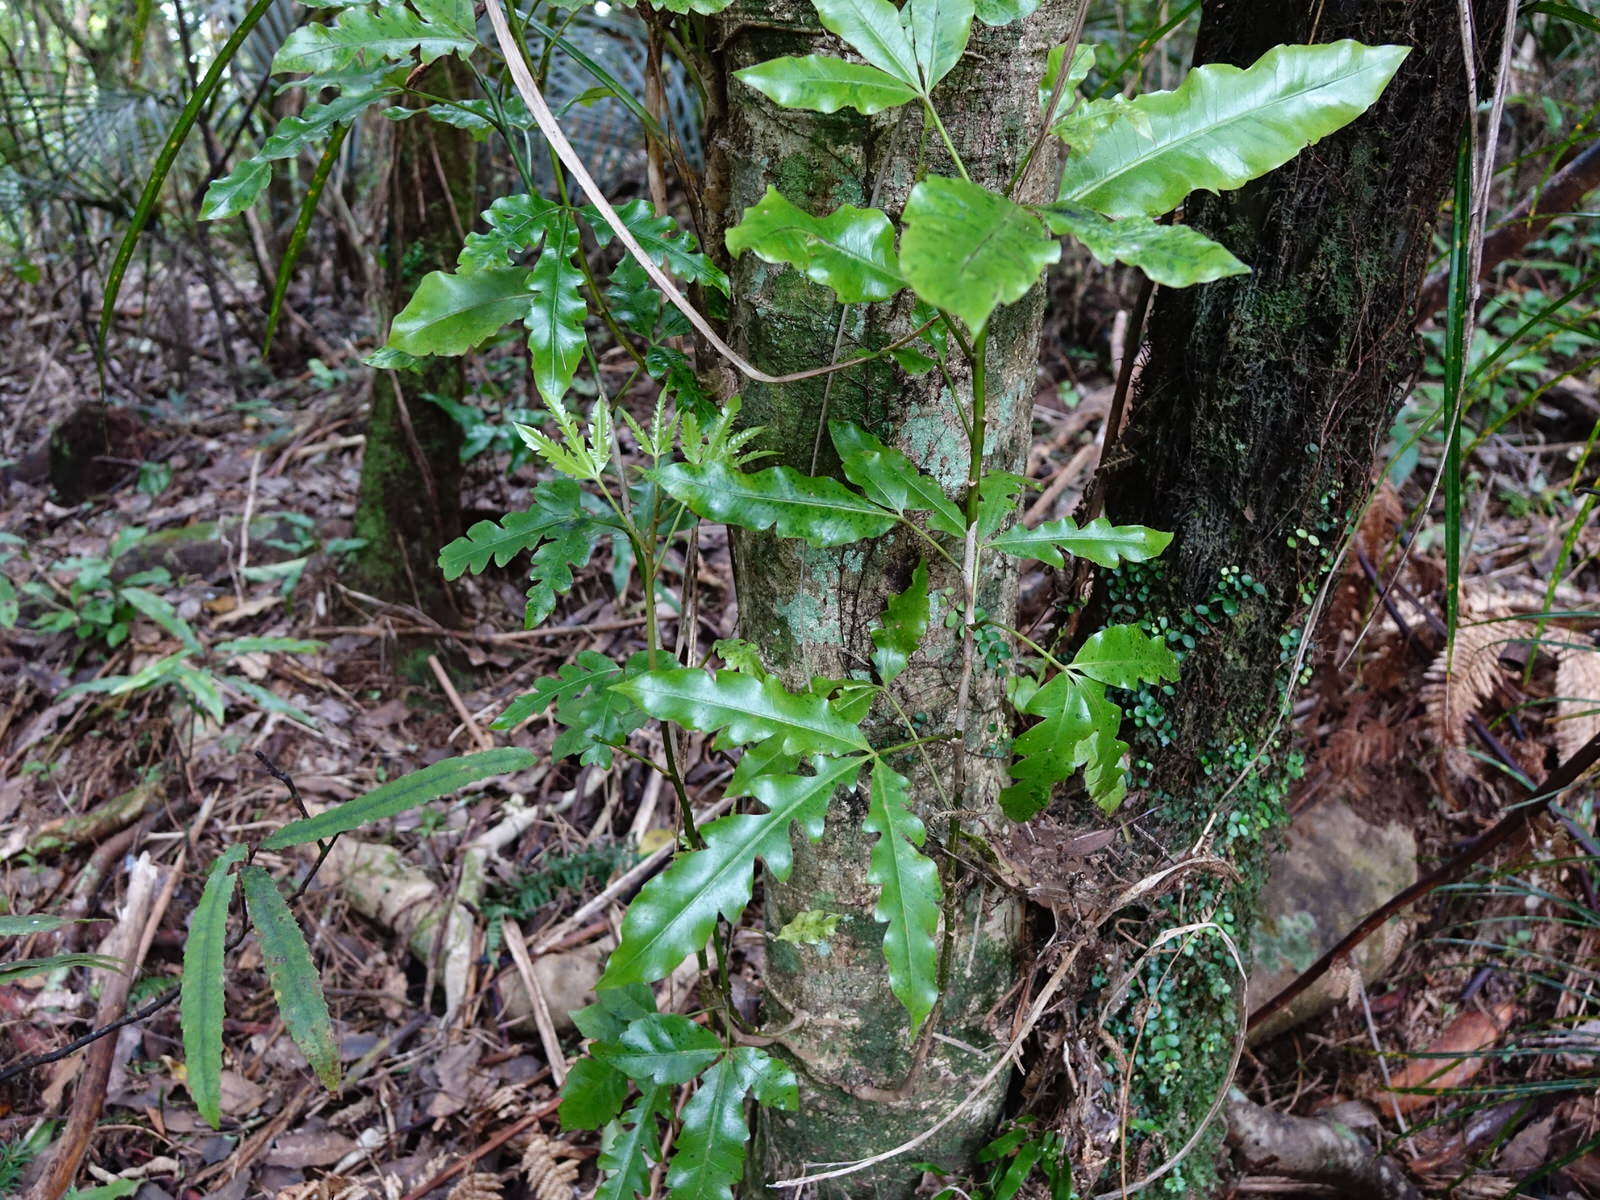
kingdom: Plantae
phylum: Tracheophyta
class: Magnoliopsida
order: Apiales
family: Araliaceae
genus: Raukaua
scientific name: Raukaua edgerleyi
